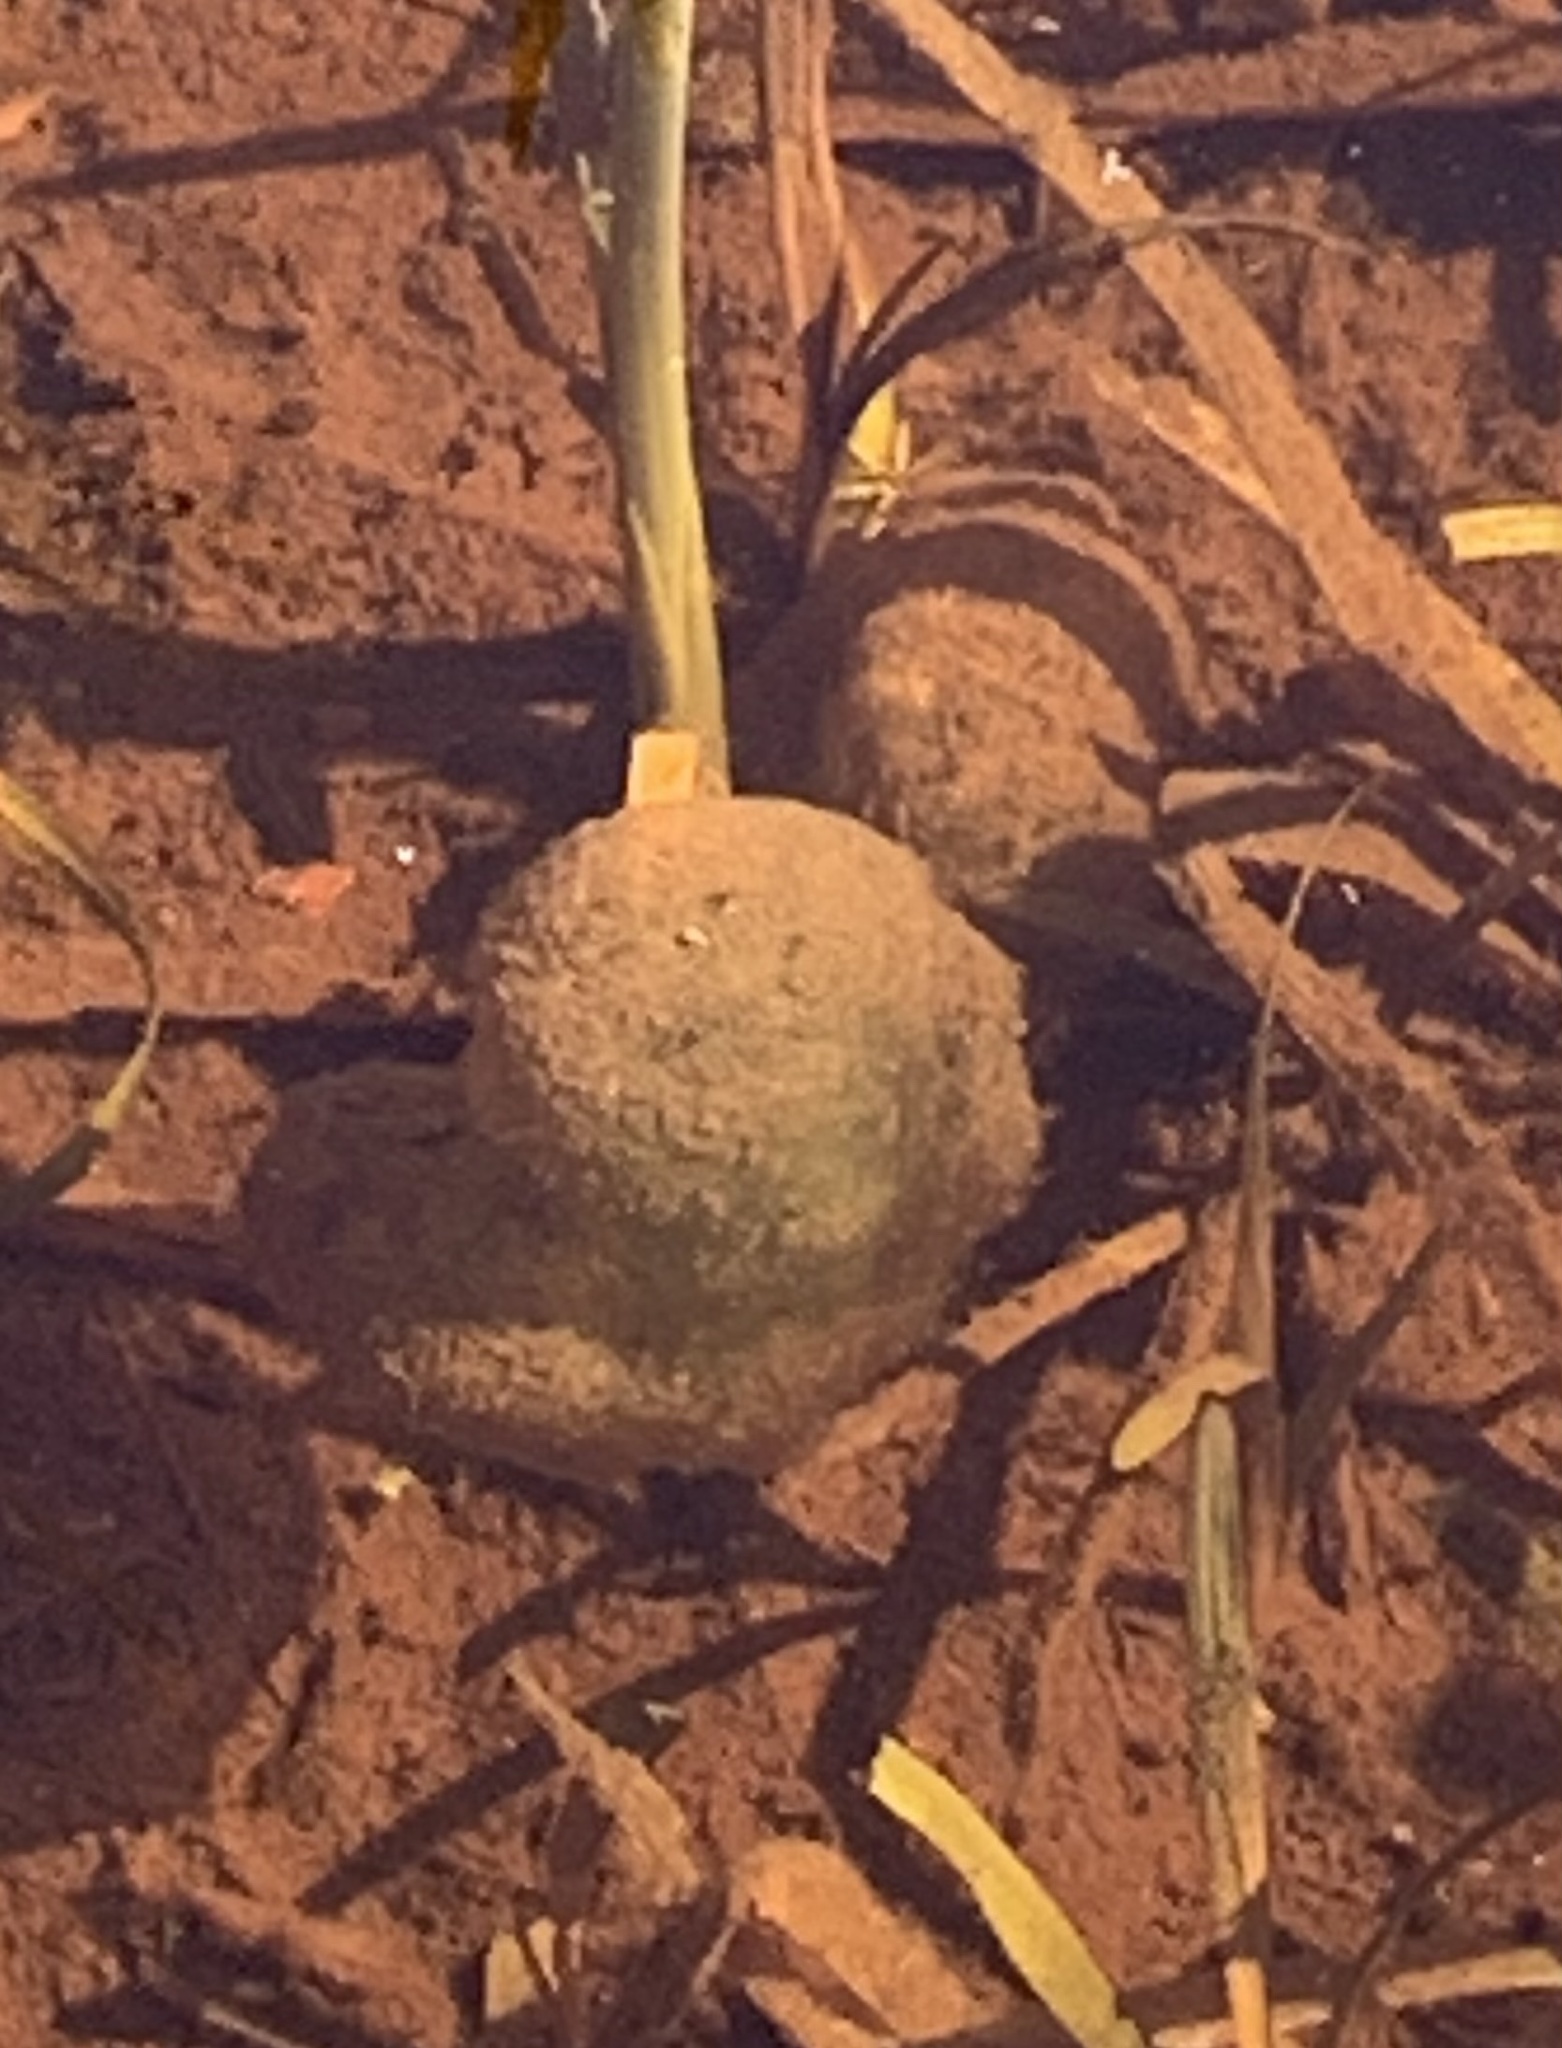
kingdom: Animalia
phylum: Chordata
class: Amphibia
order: Caudata
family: Ambystomatidae
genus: Ambystoma
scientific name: Ambystoma maculatum
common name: Spotted salamander
